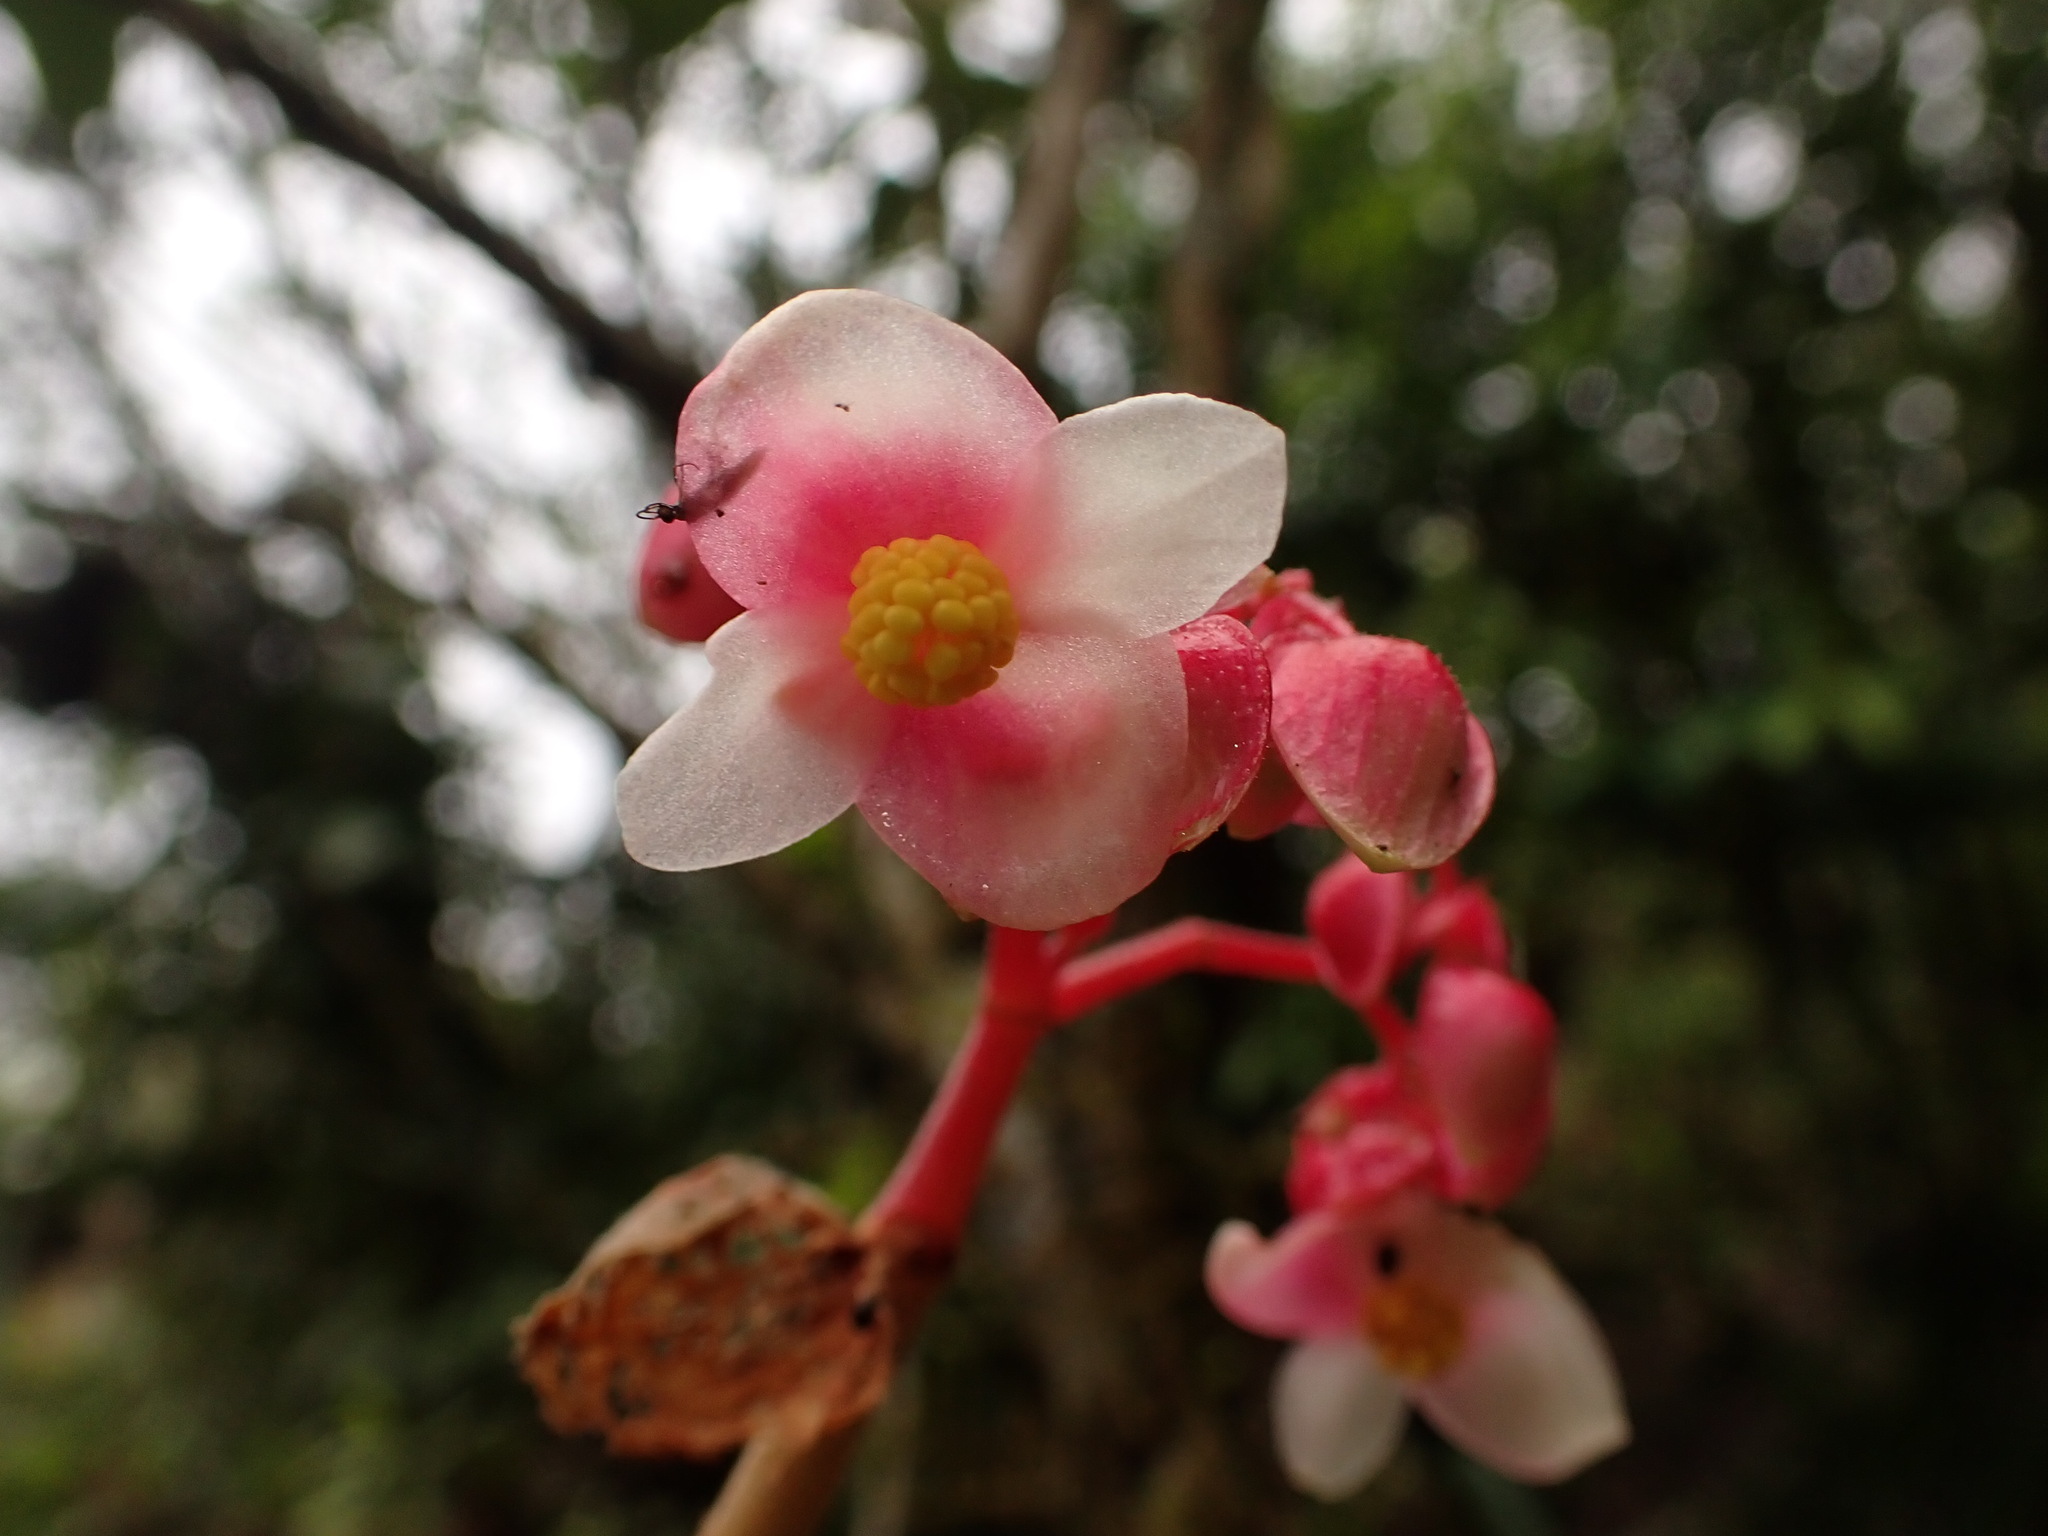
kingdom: Plantae
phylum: Tracheophyta
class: Magnoliopsida
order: Cucurbitales
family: Begoniaceae
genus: Begonia
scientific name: Begonia espiritosantensis
